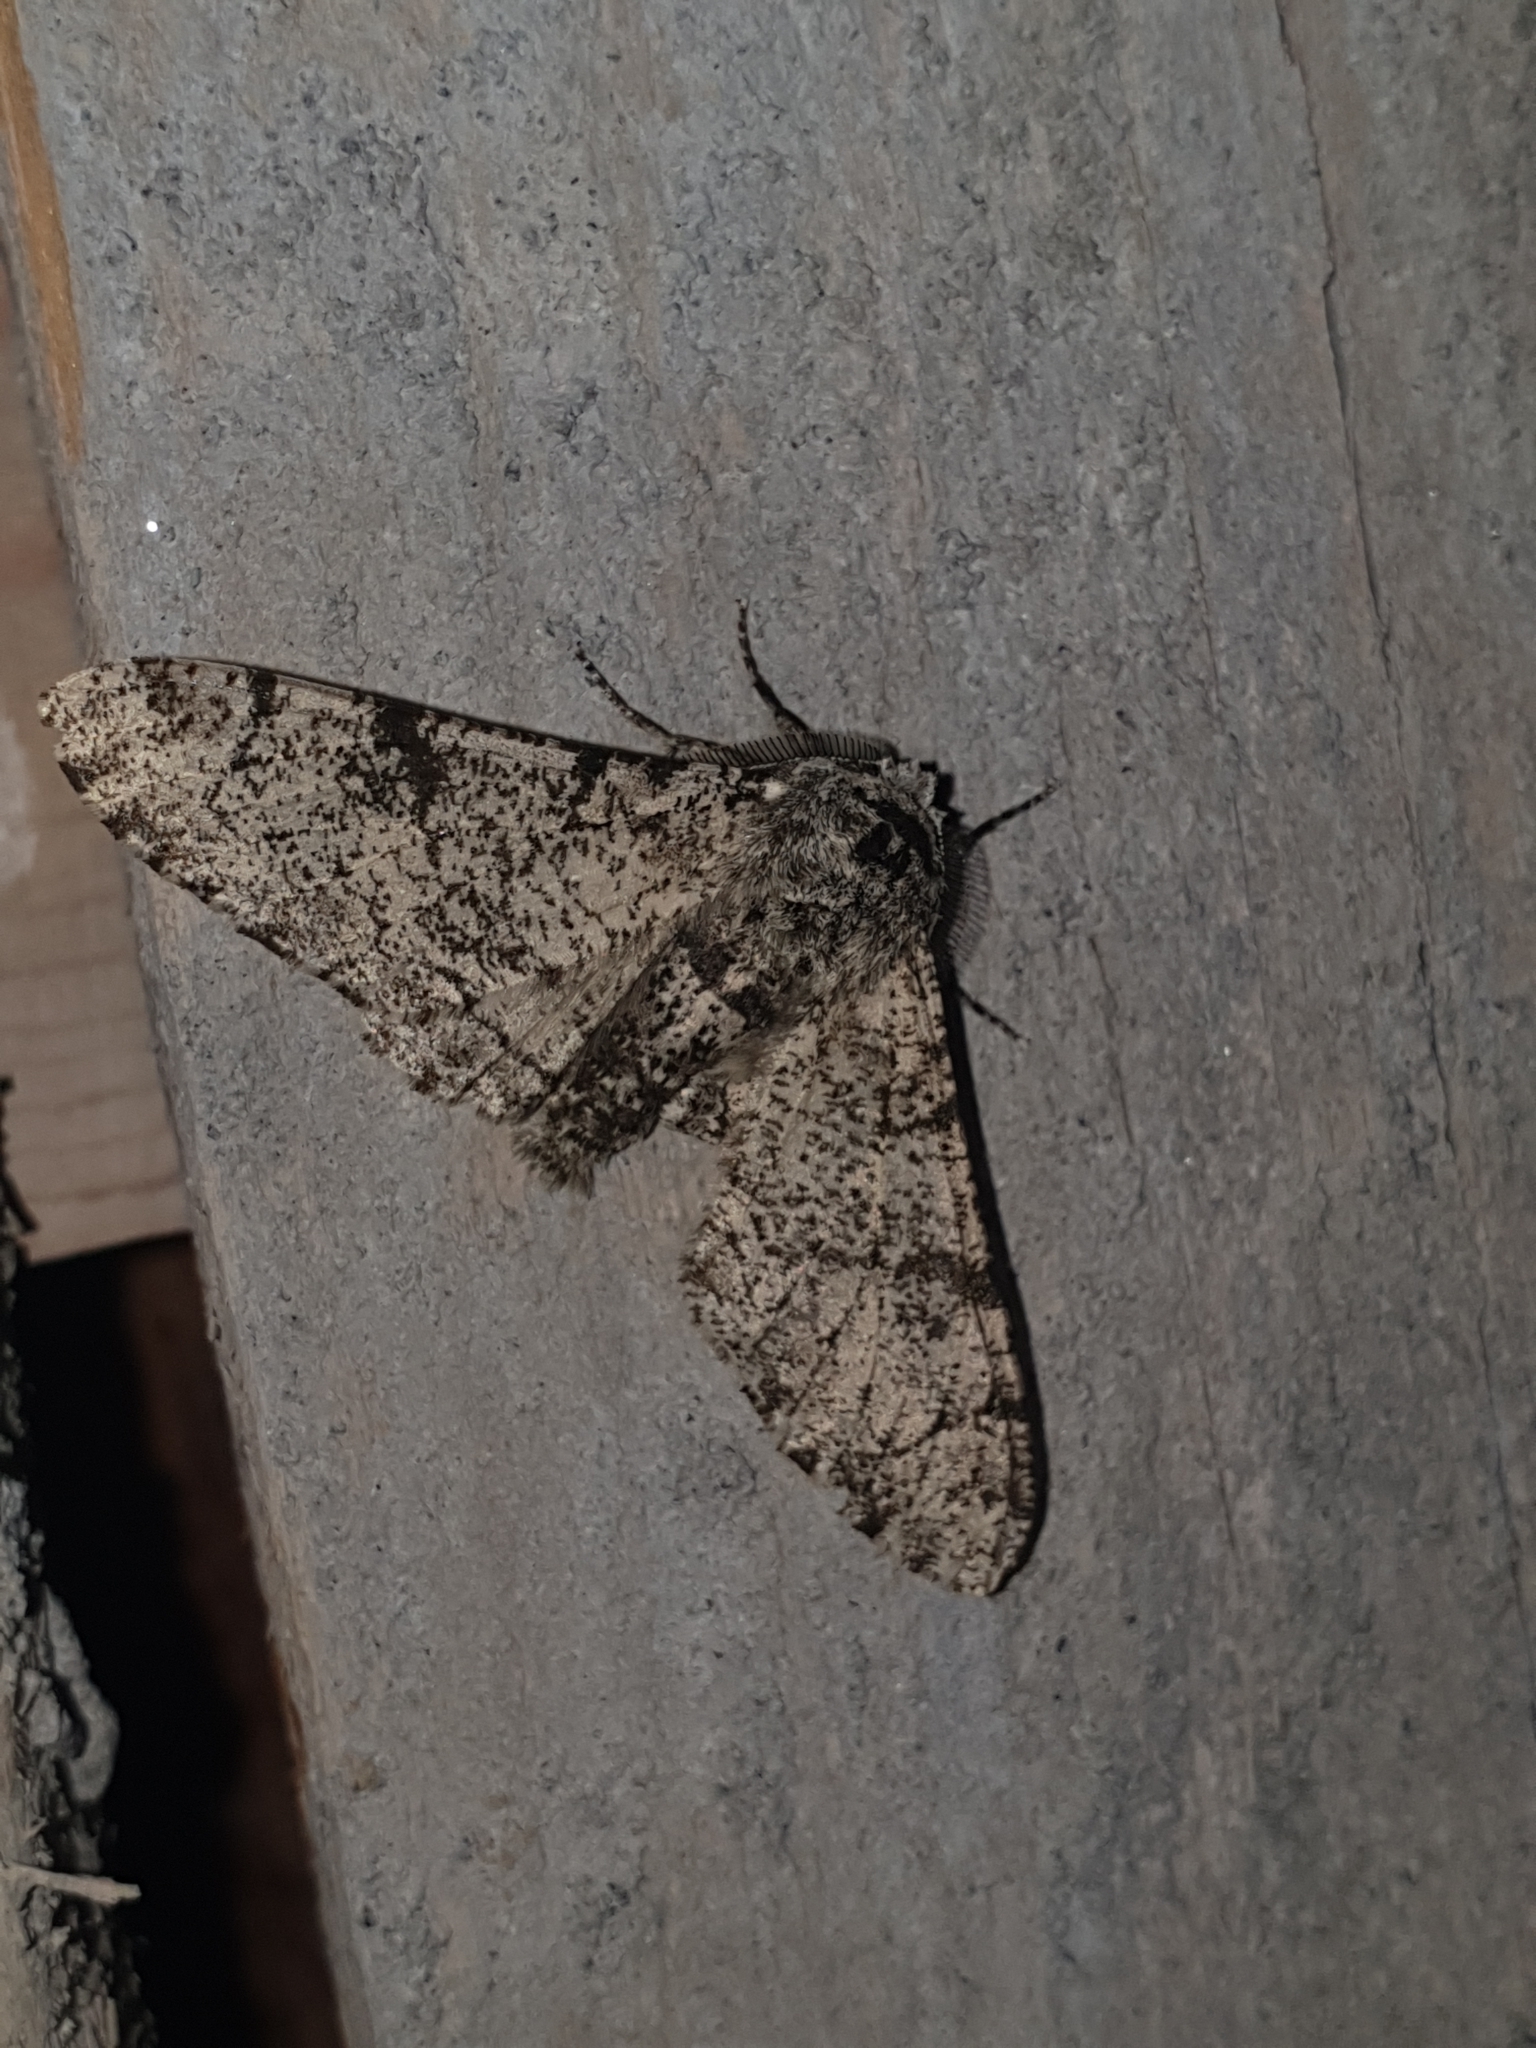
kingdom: Animalia
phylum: Arthropoda
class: Insecta
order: Lepidoptera
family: Geometridae
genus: Biston
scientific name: Biston betularia
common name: Peppered moth
